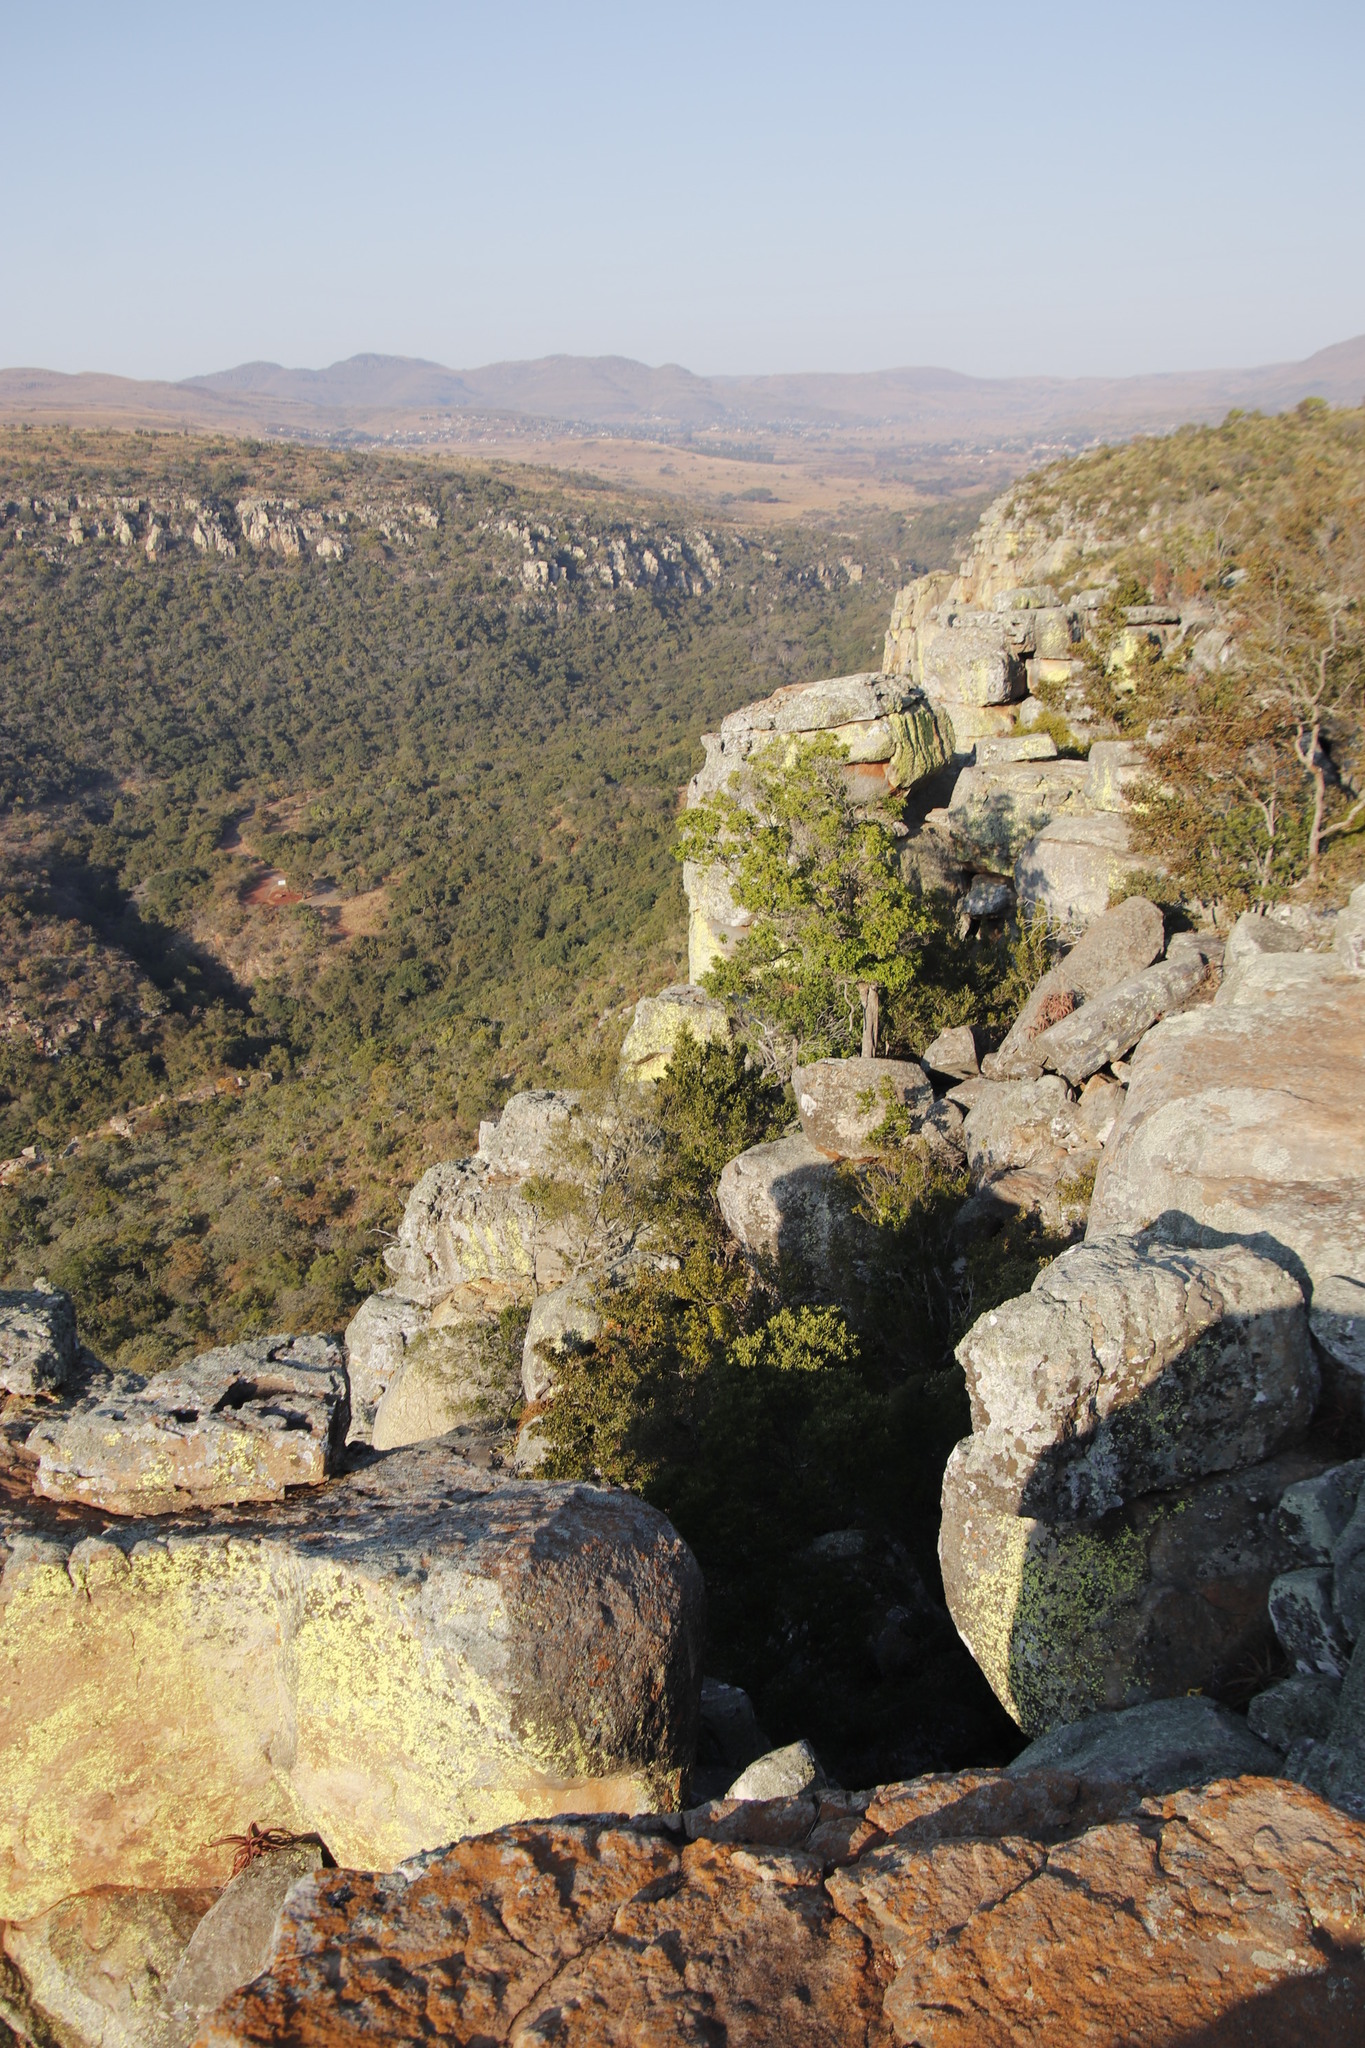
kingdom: Fungi
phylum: Ascomycota
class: Lecanoromycetes
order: Caliciales
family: Caliciaceae
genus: Dermatiscum
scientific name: Dermatiscum thunbergii
